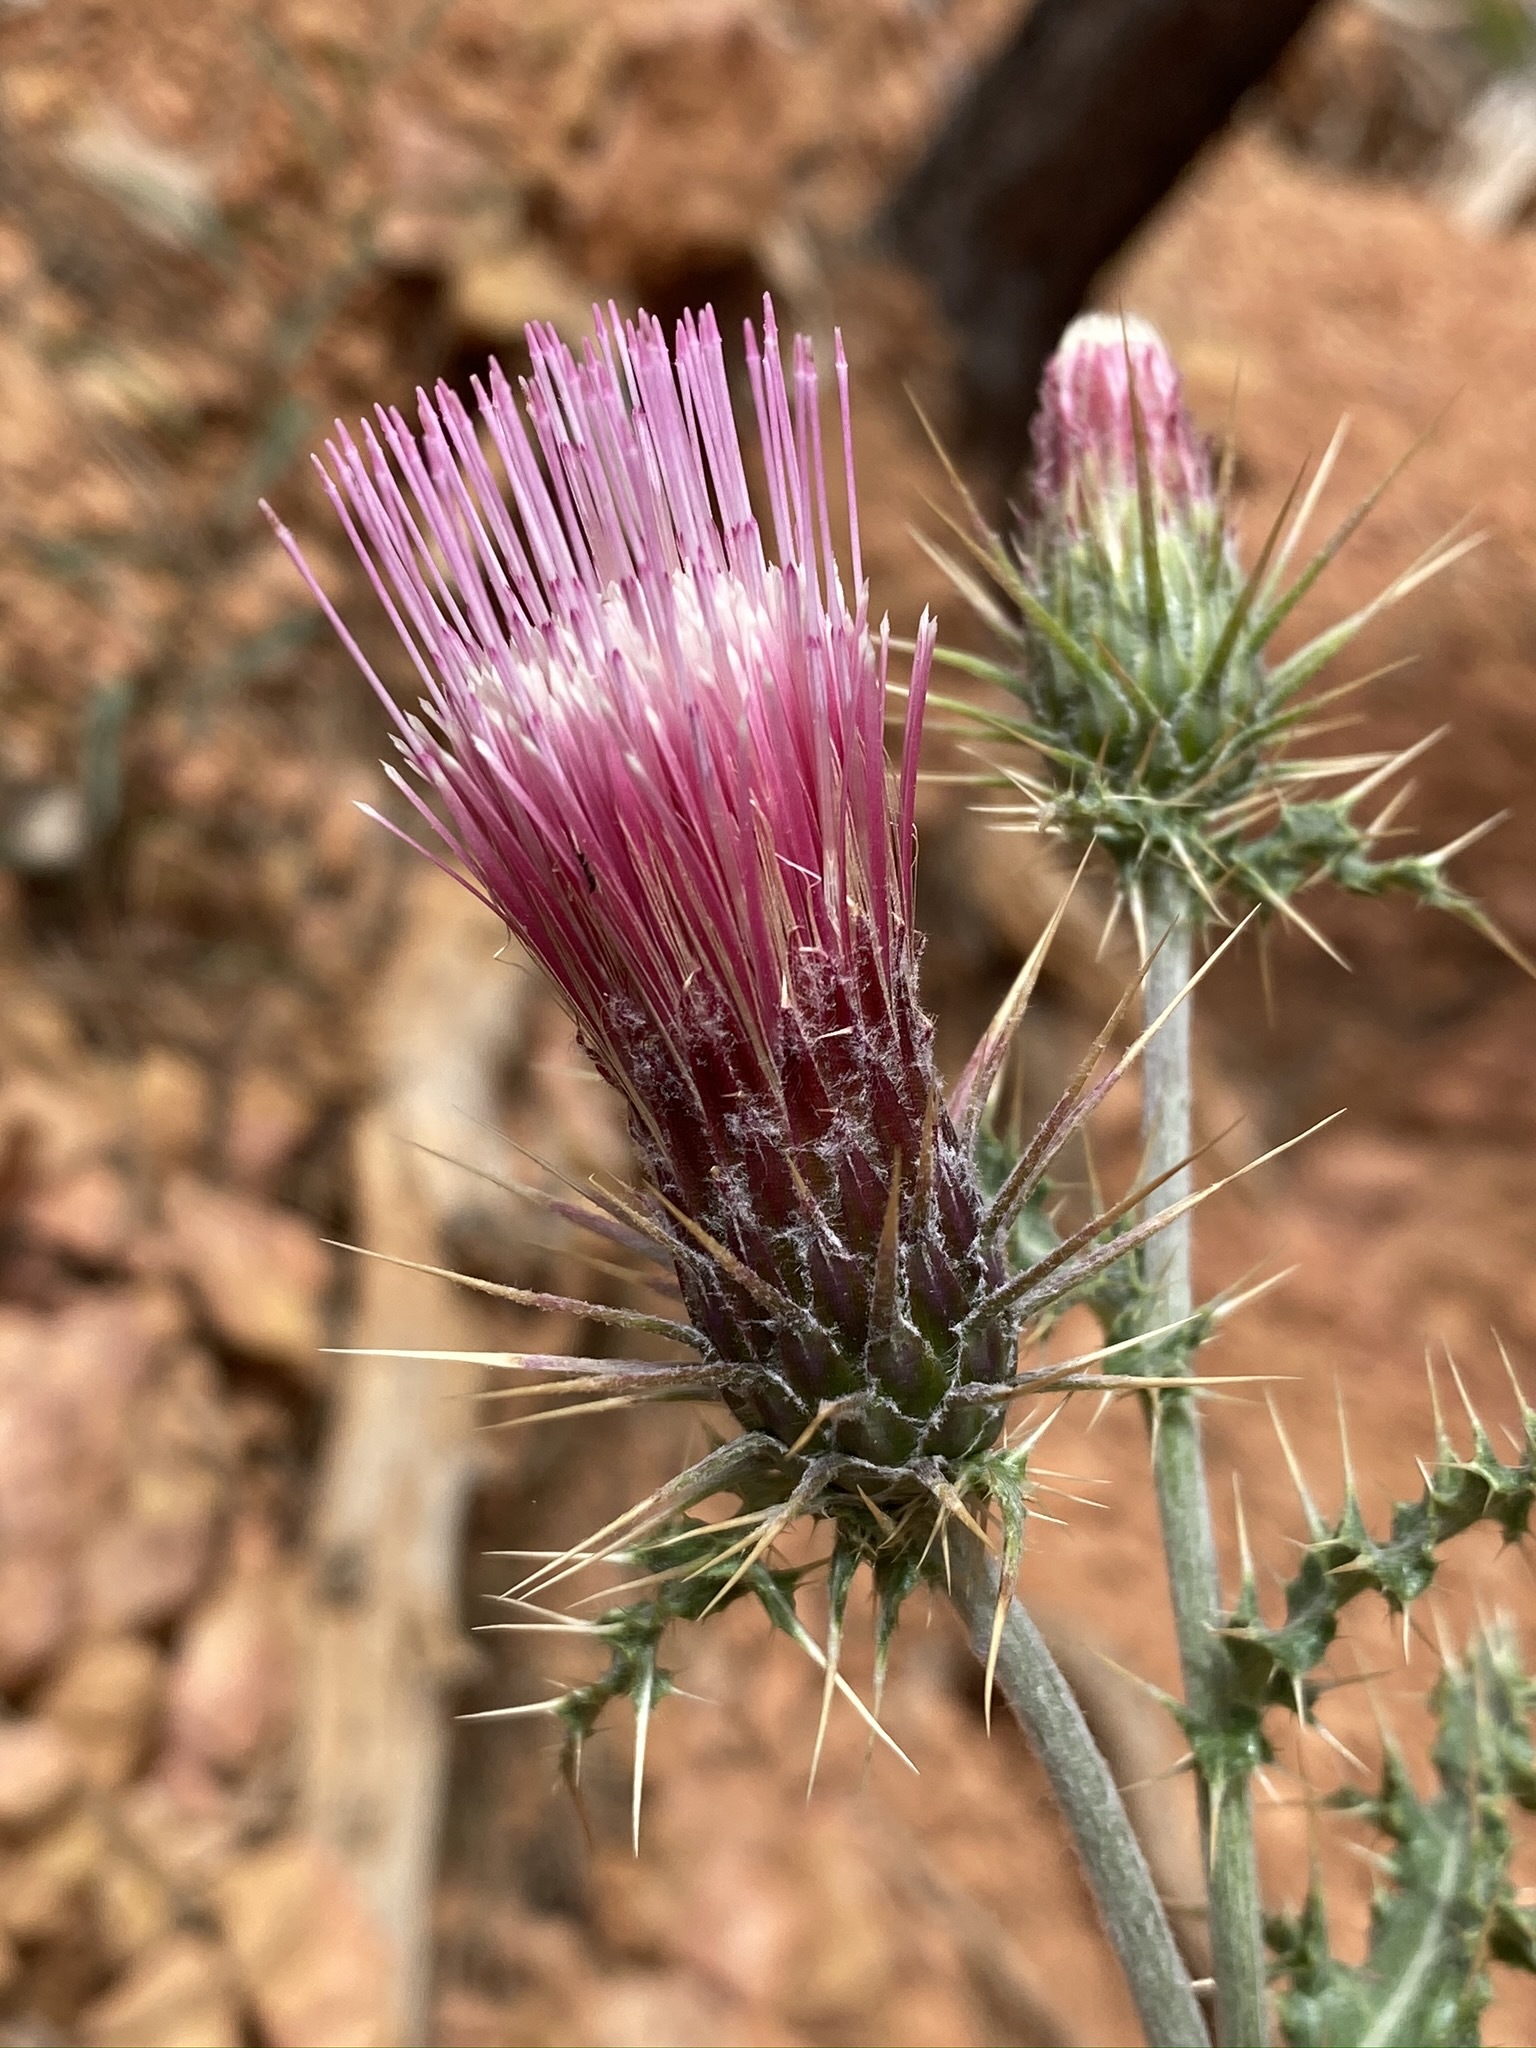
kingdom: Plantae
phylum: Tracheophyta
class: Magnoliopsida
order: Asterales
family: Asteraceae
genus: Cirsium
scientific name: Cirsium arizonicum
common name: Arizona thistle
